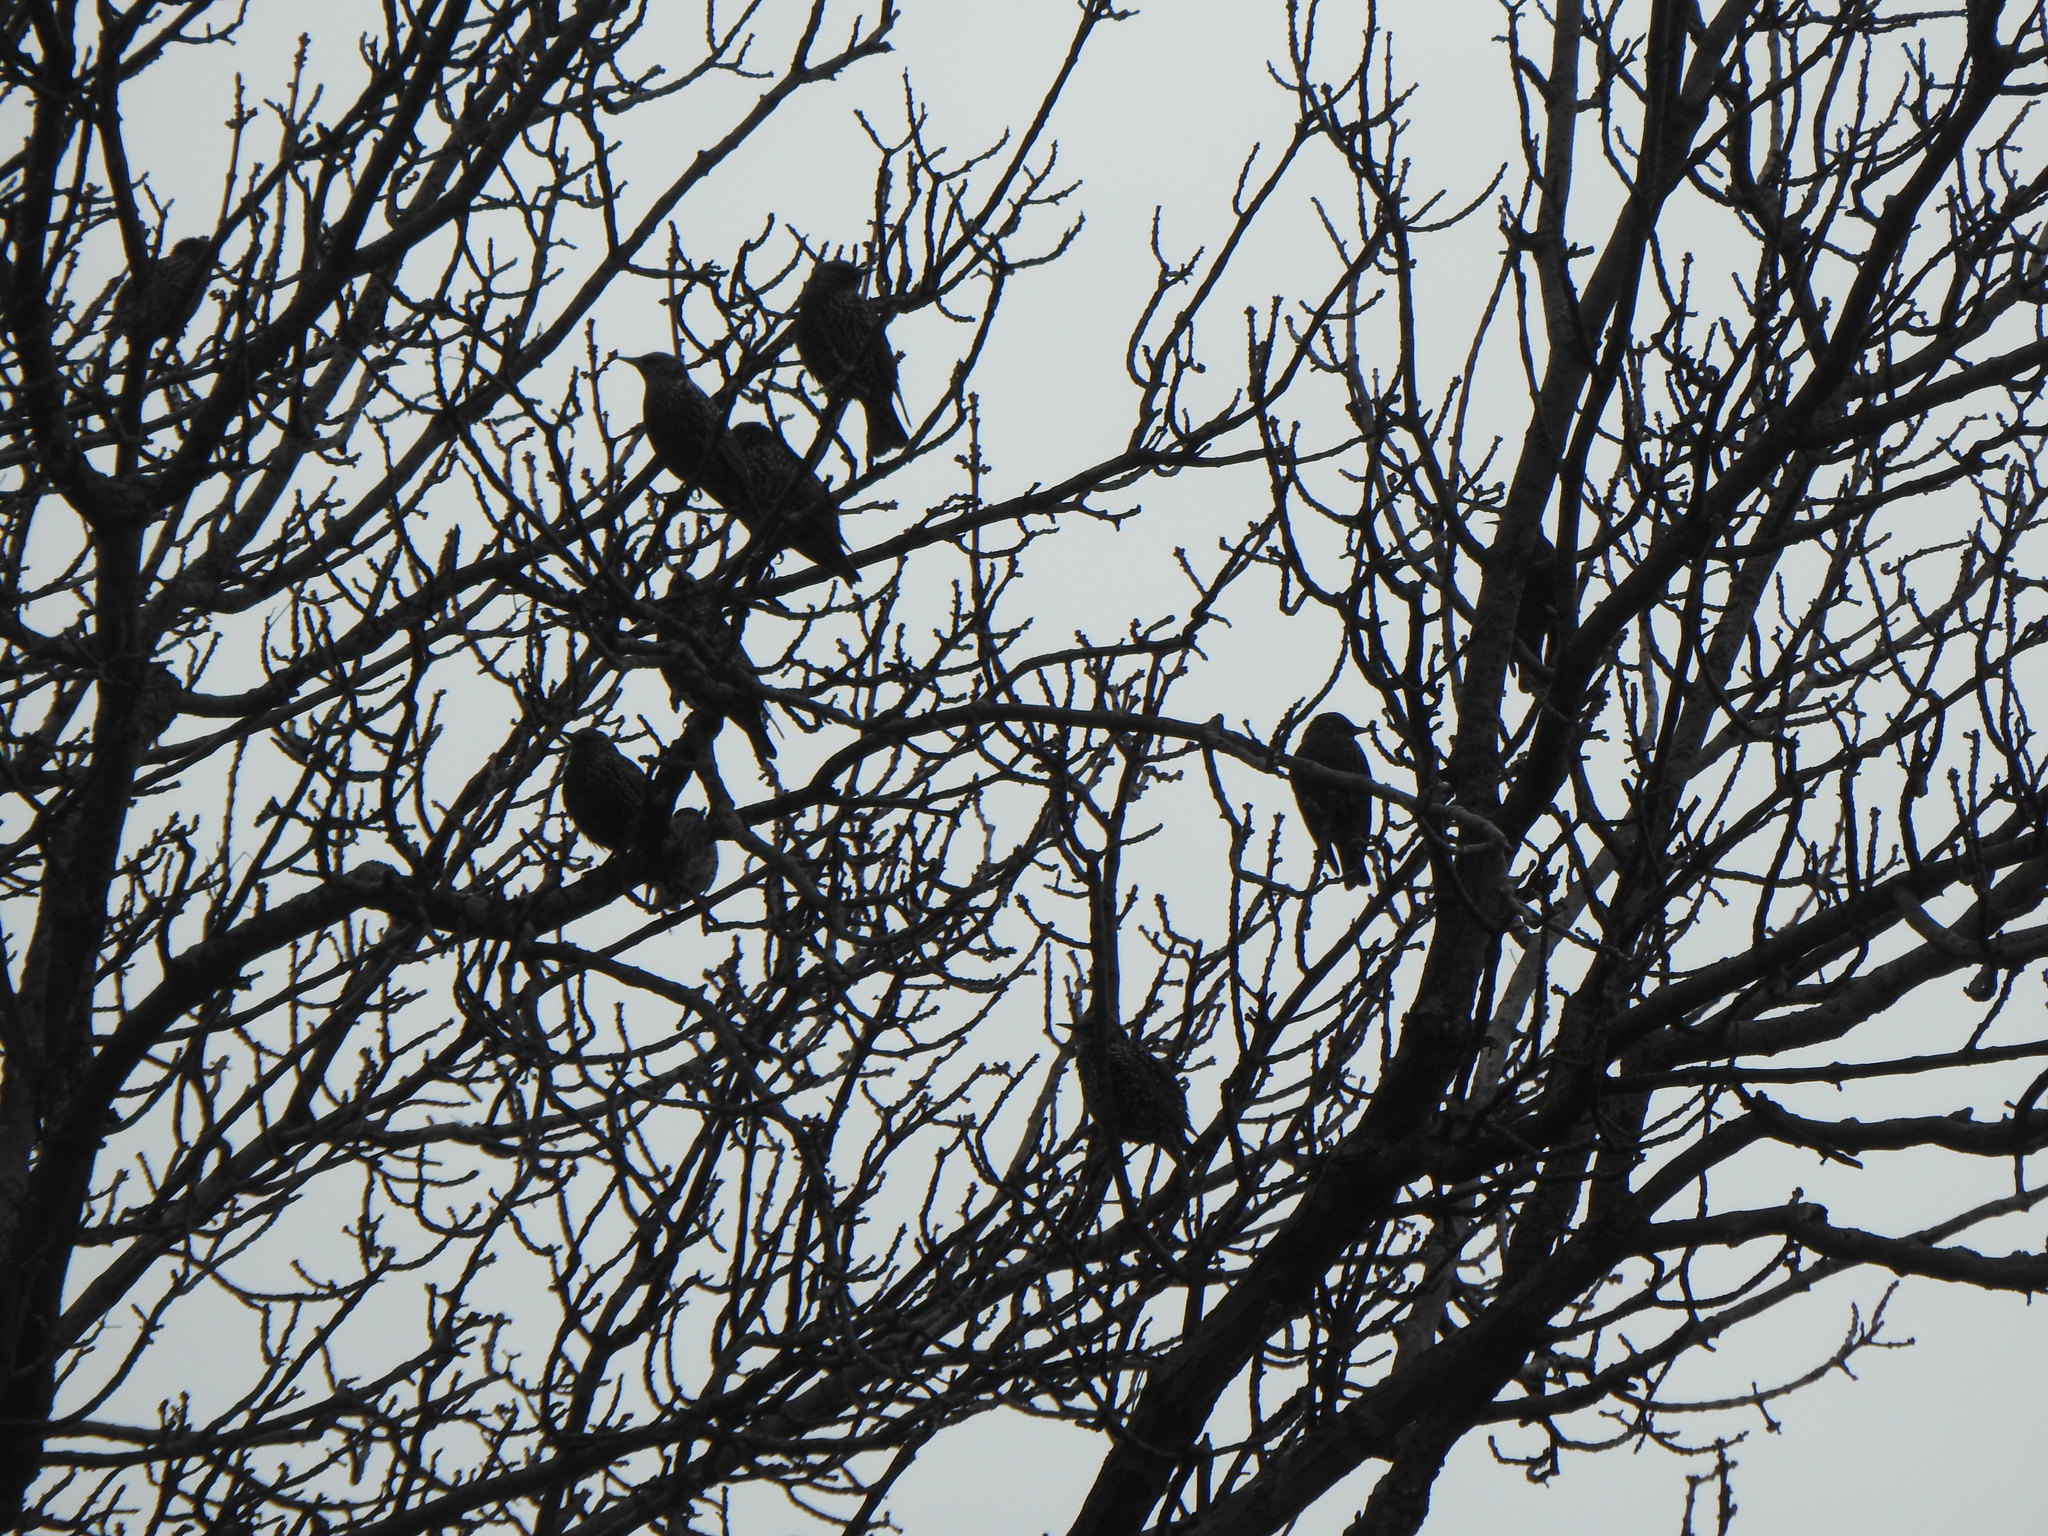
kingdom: Animalia
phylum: Chordata
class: Aves
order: Passeriformes
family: Sturnidae
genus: Sturnus
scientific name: Sturnus vulgaris
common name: Common starling
